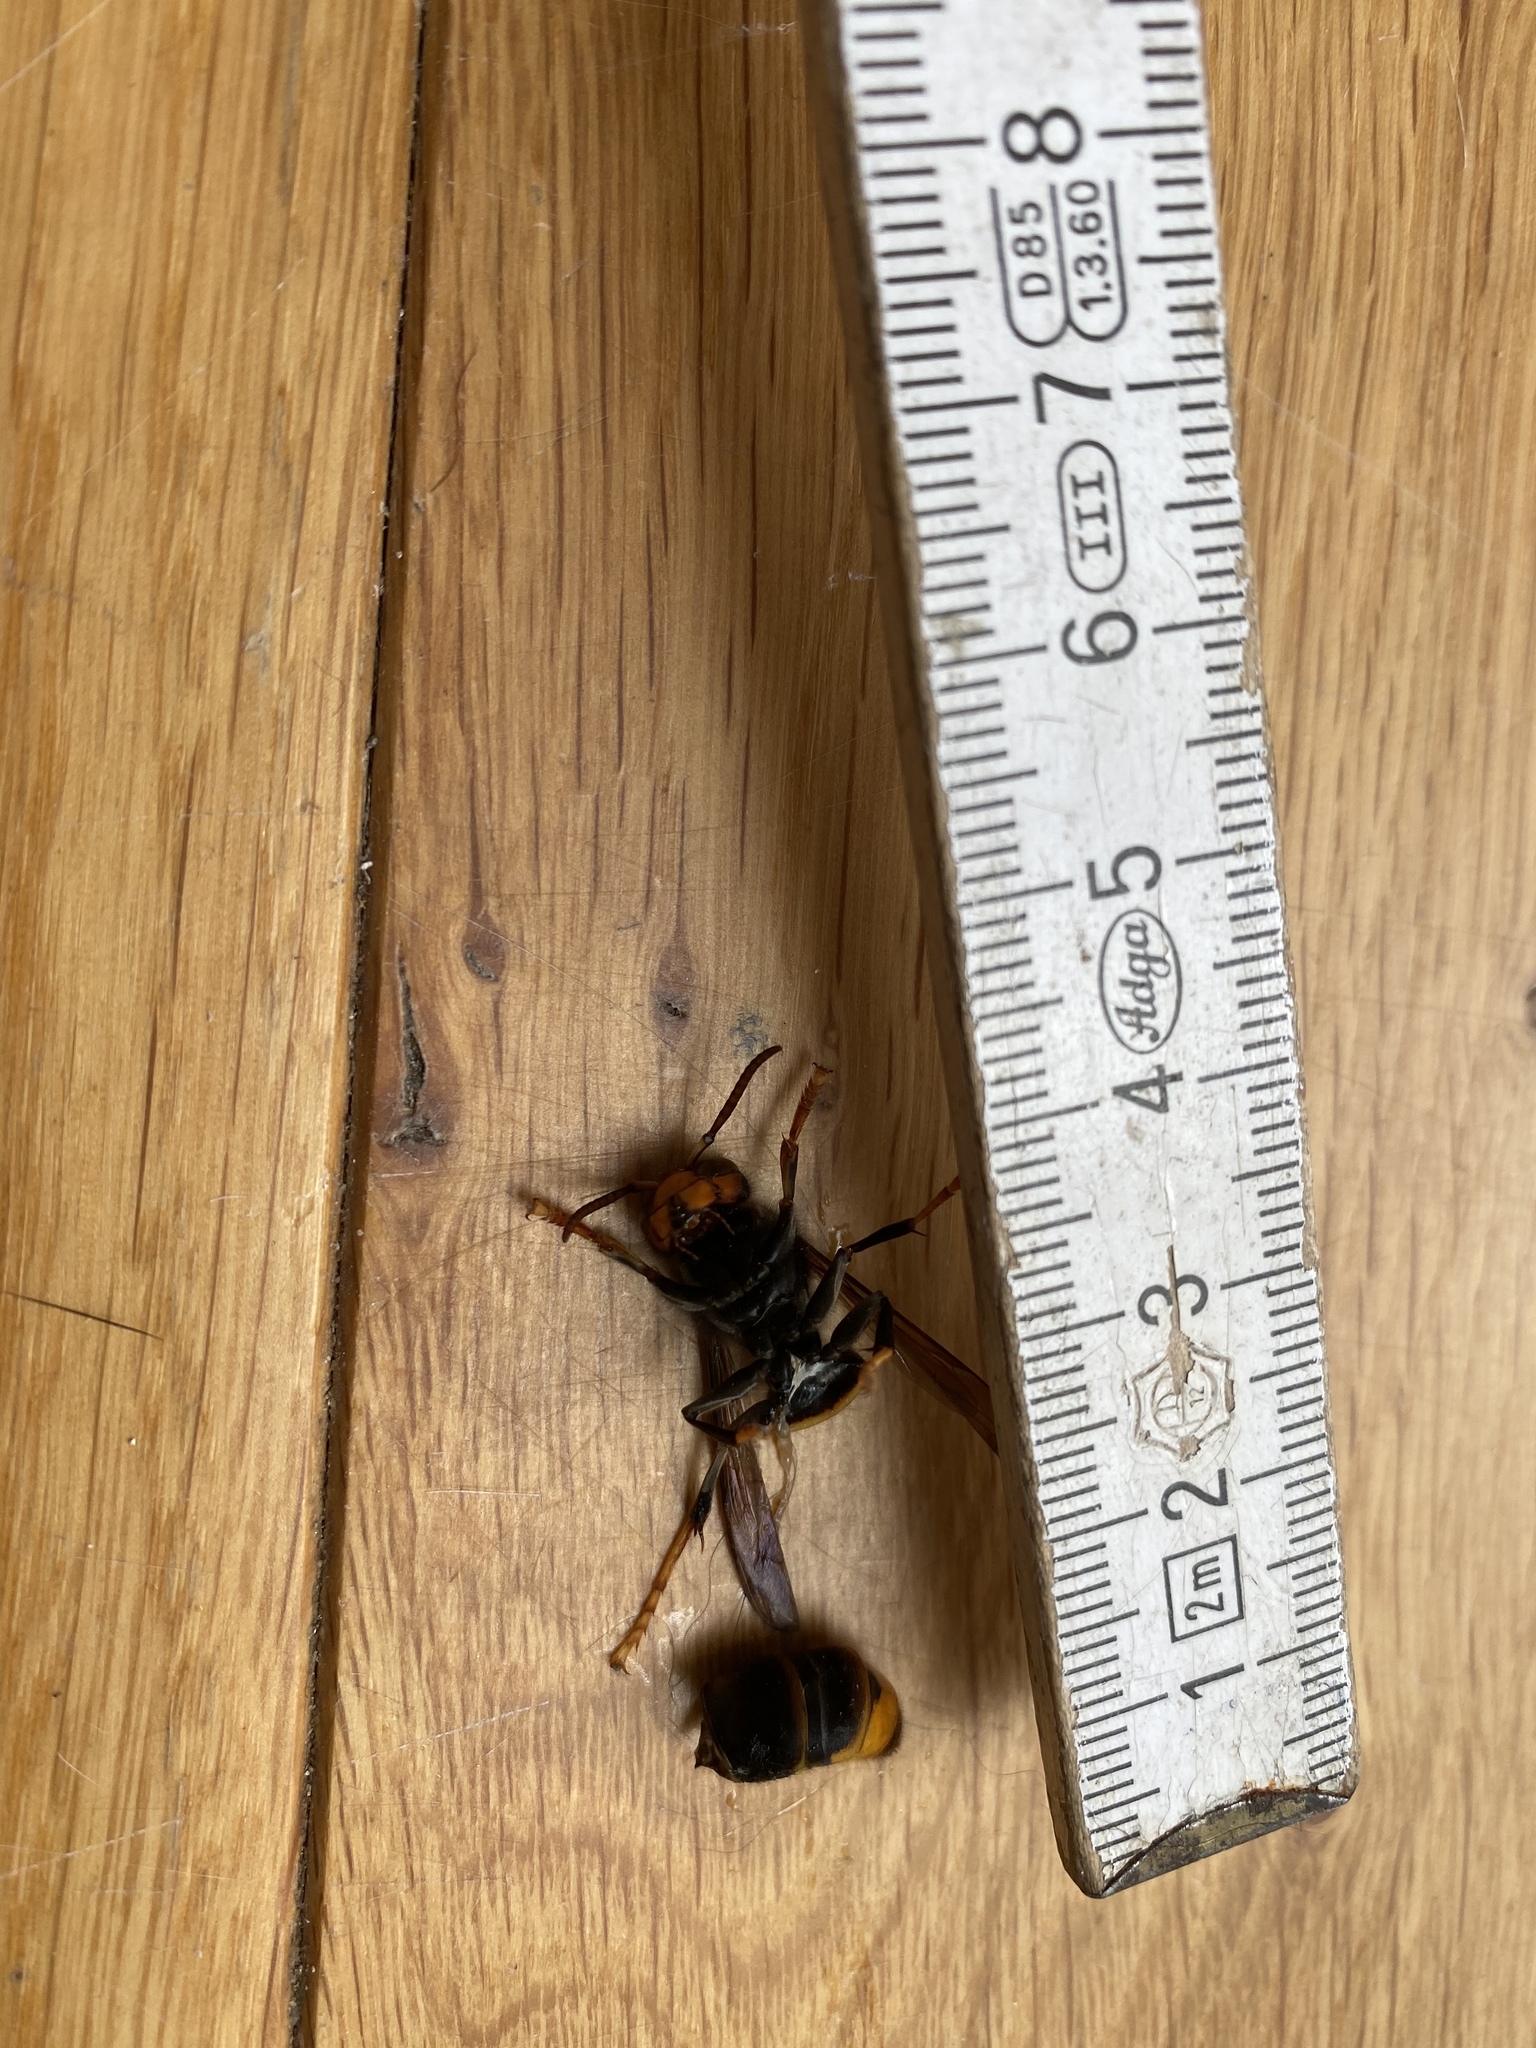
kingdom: Animalia
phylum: Arthropoda
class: Insecta
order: Hymenoptera
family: Vespidae
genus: Vespa
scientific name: Vespa velutina
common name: Asian hornet
